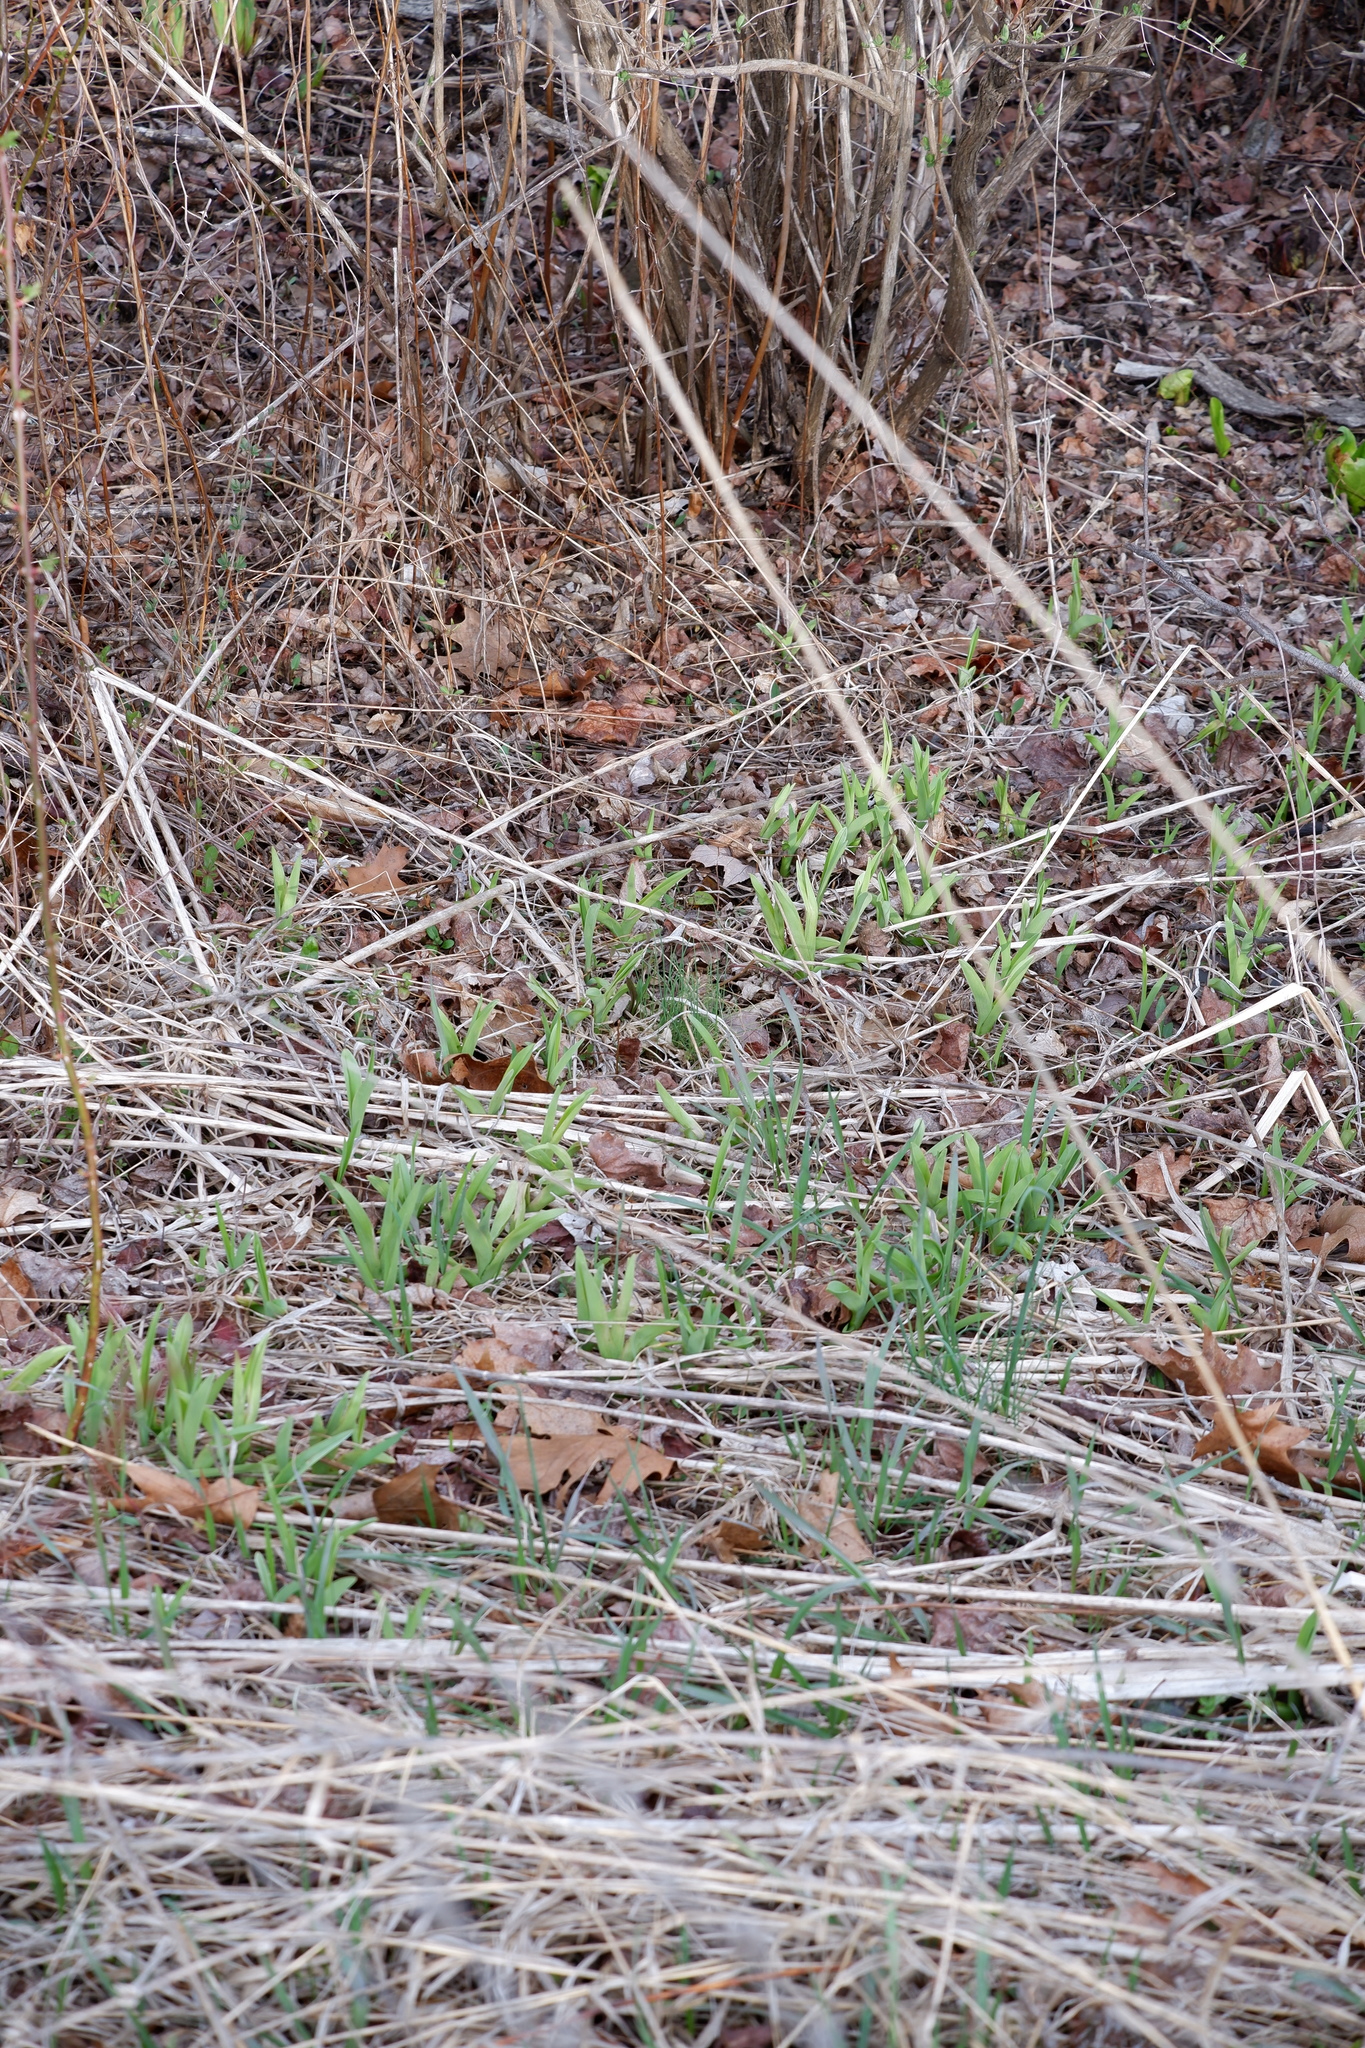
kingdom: Plantae
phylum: Tracheophyta
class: Liliopsida
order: Asparagales
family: Asphodelaceae
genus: Hemerocallis
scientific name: Hemerocallis fulva
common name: Orange day-lily
